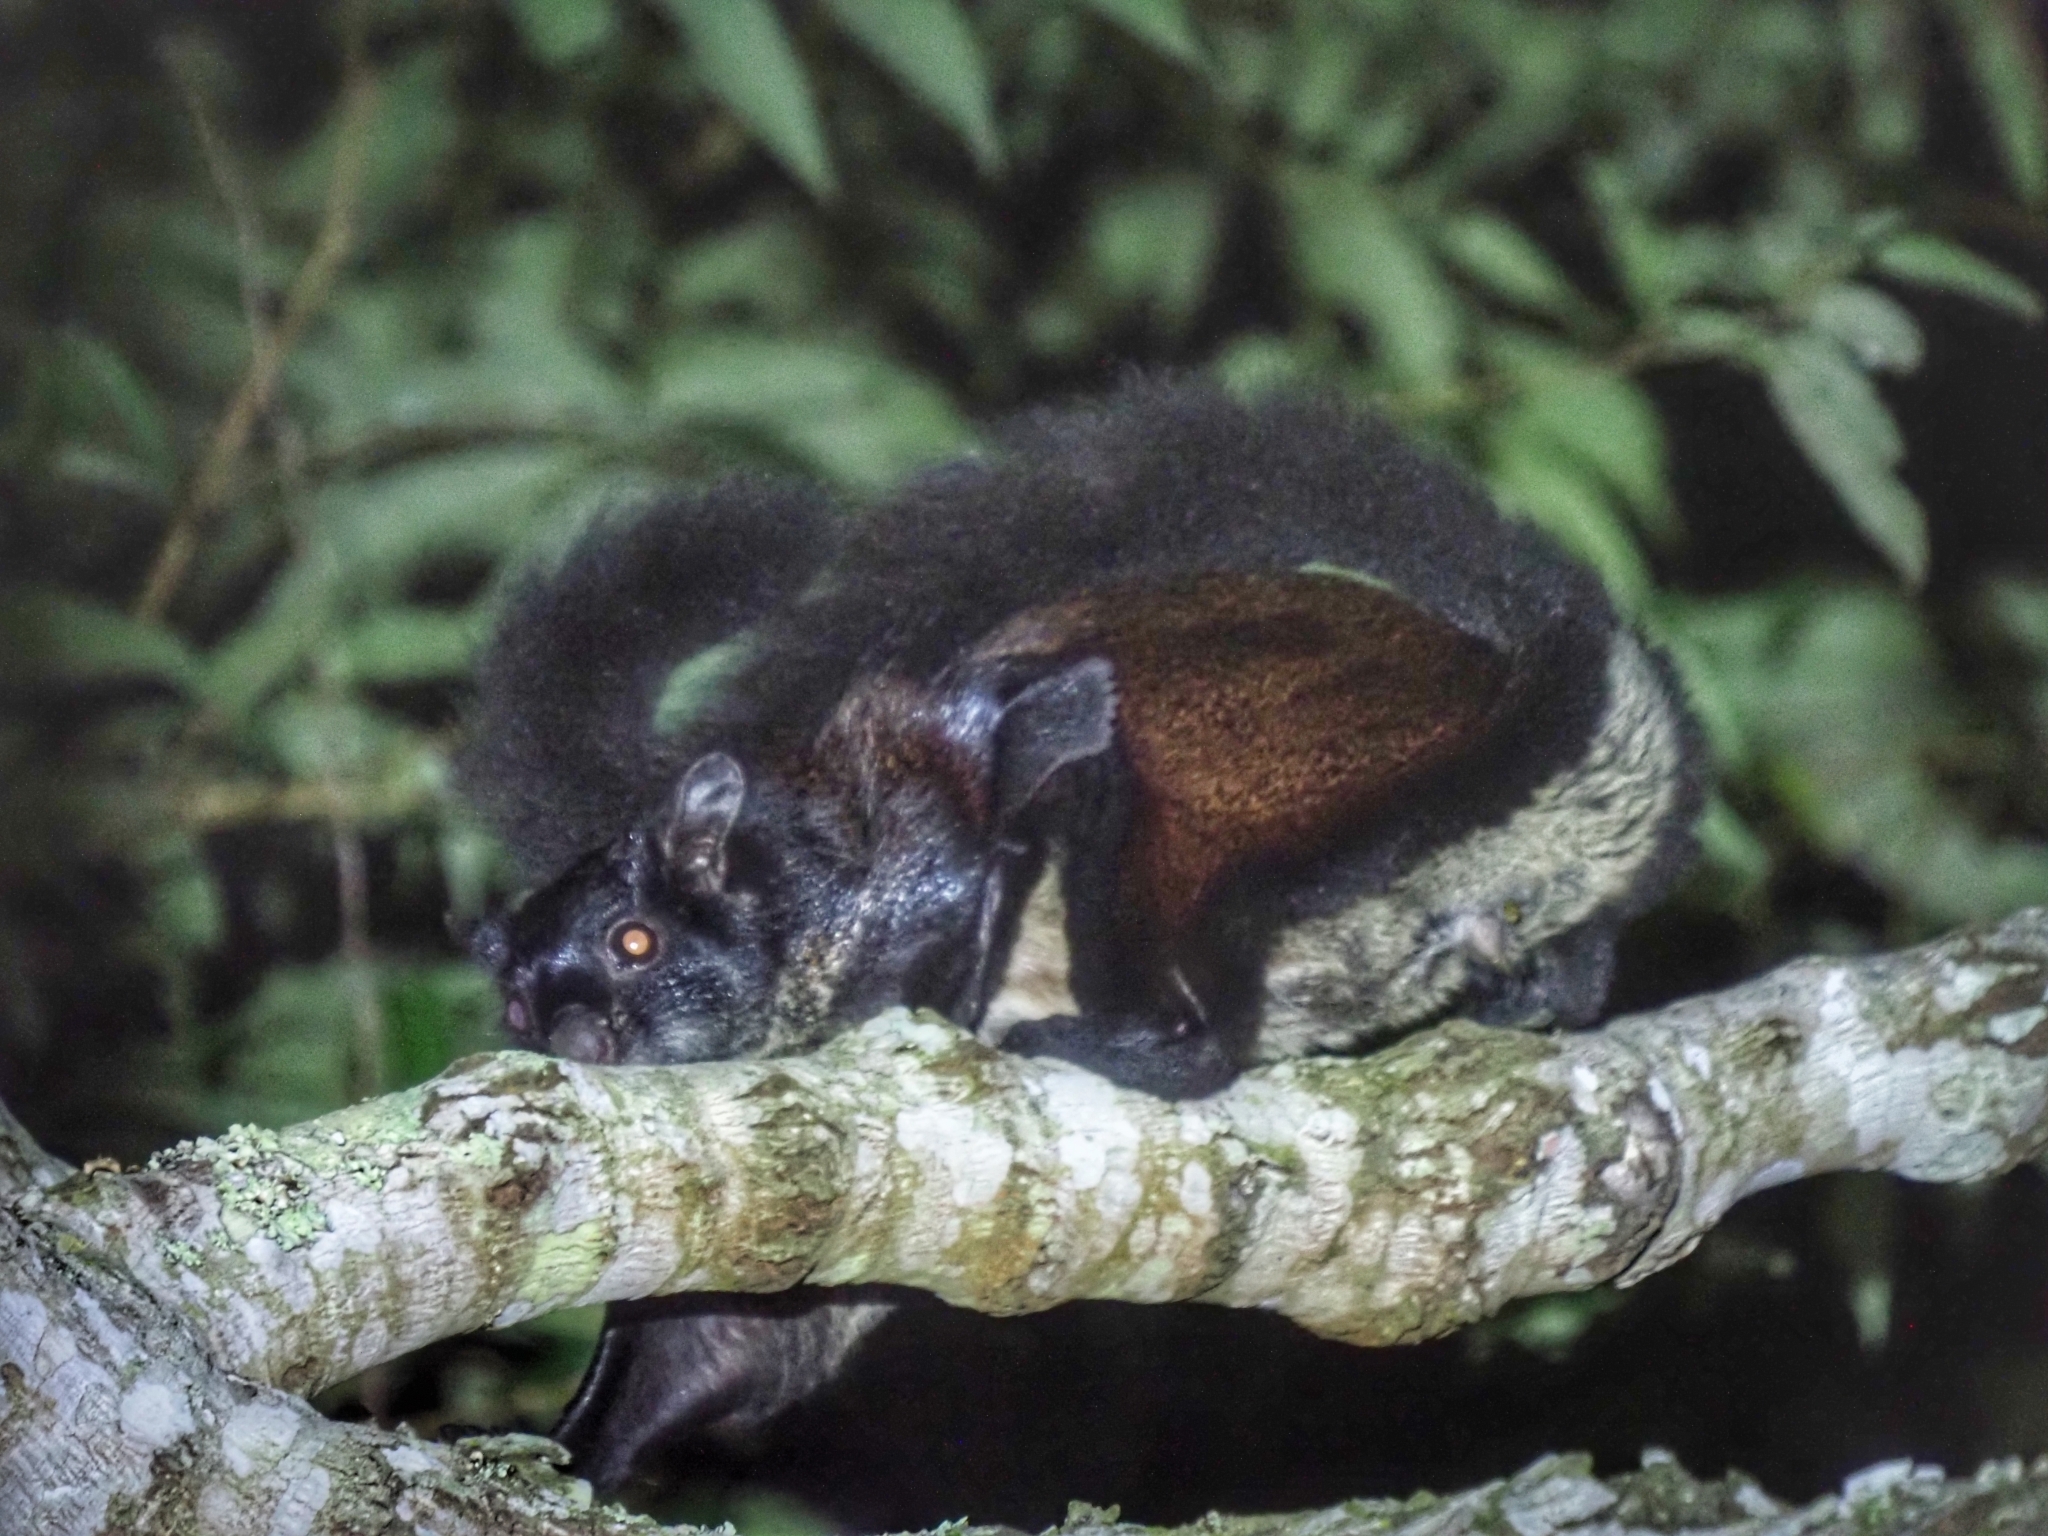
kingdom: Animalia
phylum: Chordata
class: Mammalia
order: Rodentia
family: Sciuridae
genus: Petaurista
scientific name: Petaurista hainana
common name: Hainan giant flying squirrel
